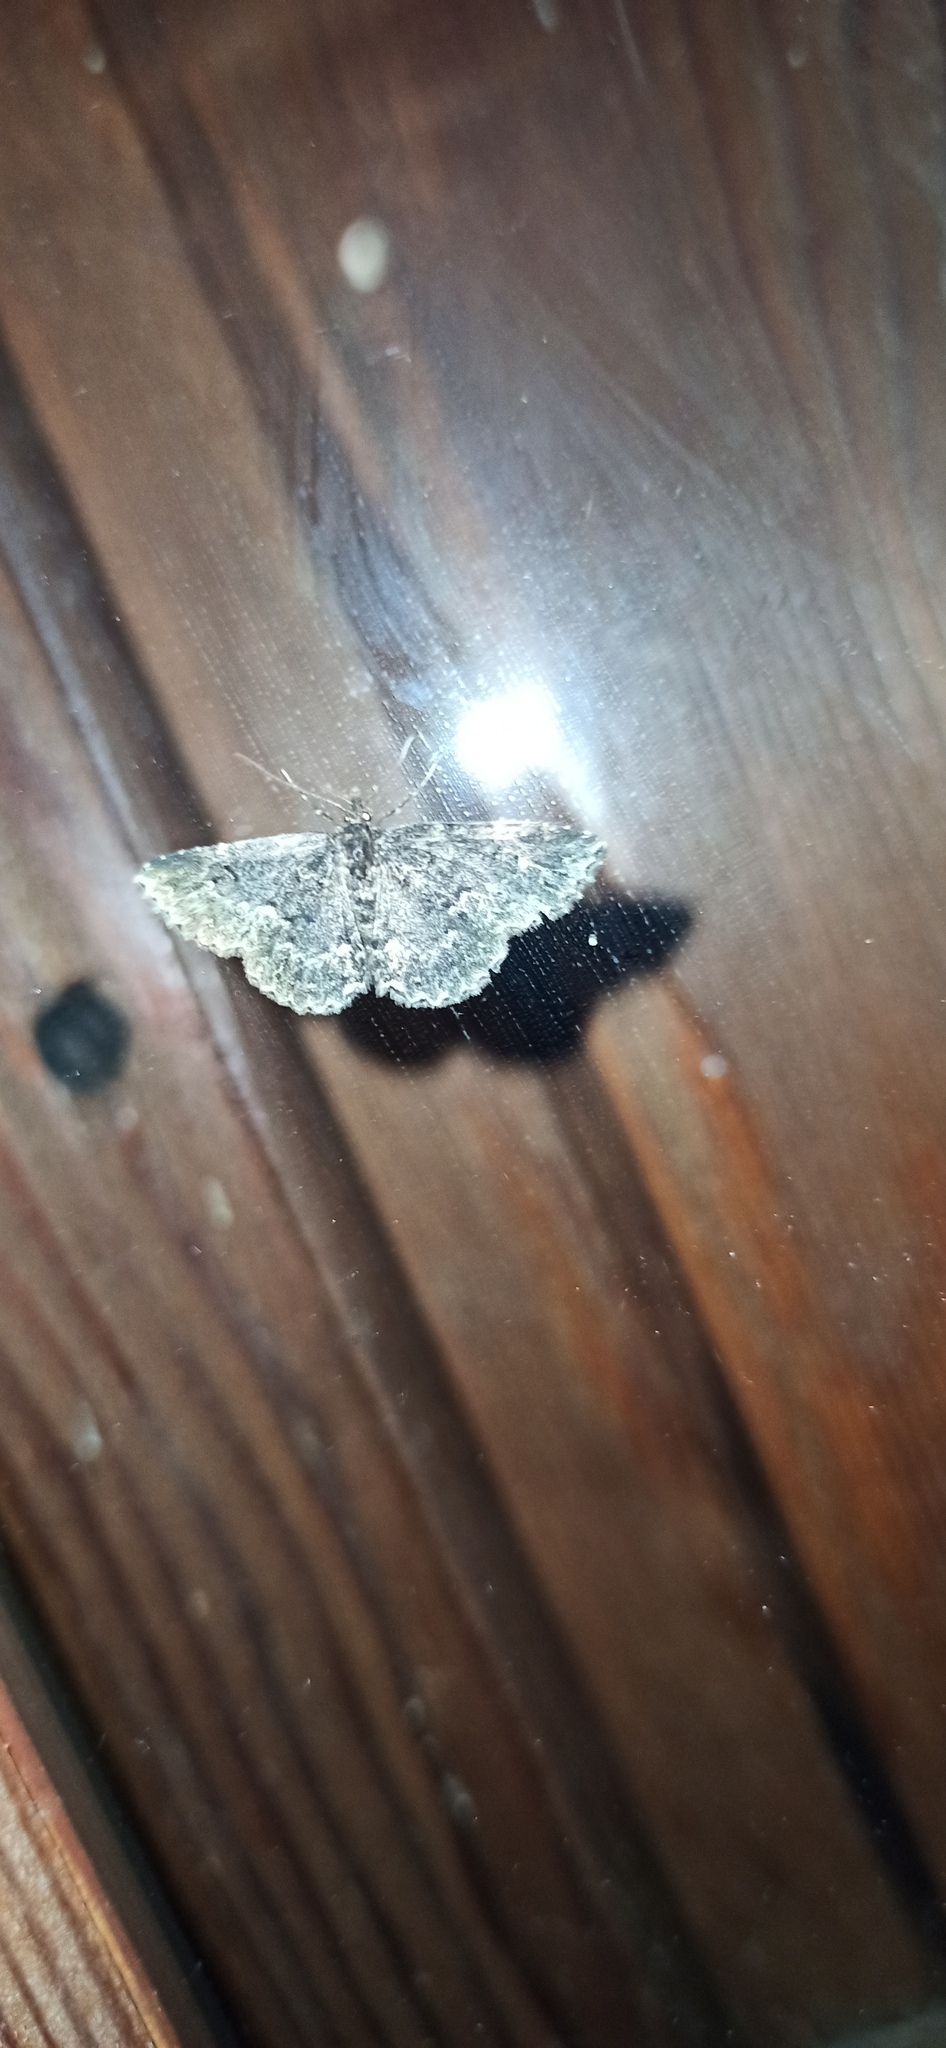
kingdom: Animalia
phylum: Arthropoda
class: Insecta
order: Lepidoptera
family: Erebidae
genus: Parascotia
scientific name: Parascotia fuliginaria
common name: Waved black
